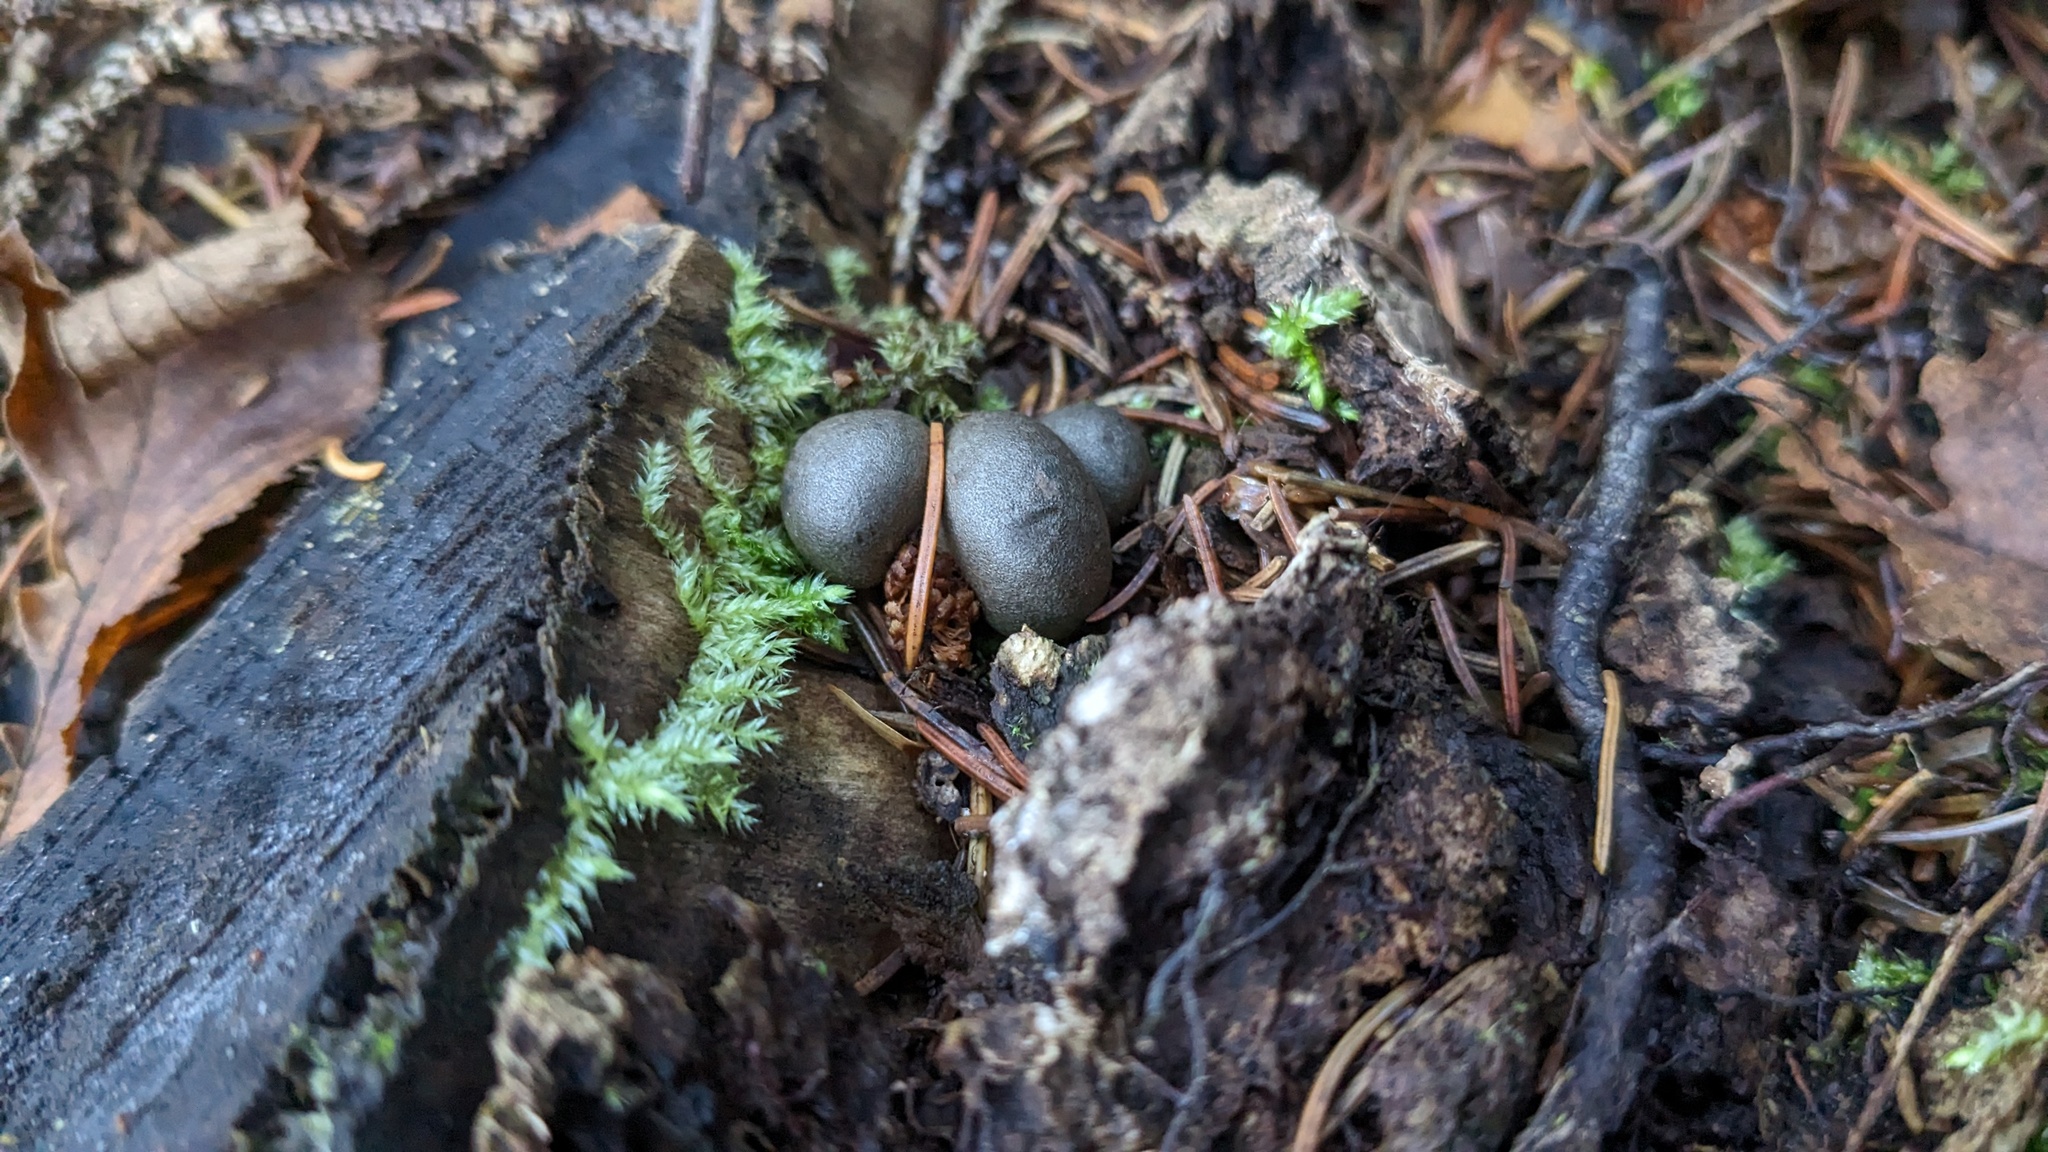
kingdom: Protozoa
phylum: Mycetozoa
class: Myxomycetes
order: Cribrariales
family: Tubiferaceae
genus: Lycogala
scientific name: Lycogala epidendrum
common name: Wolf's milk
